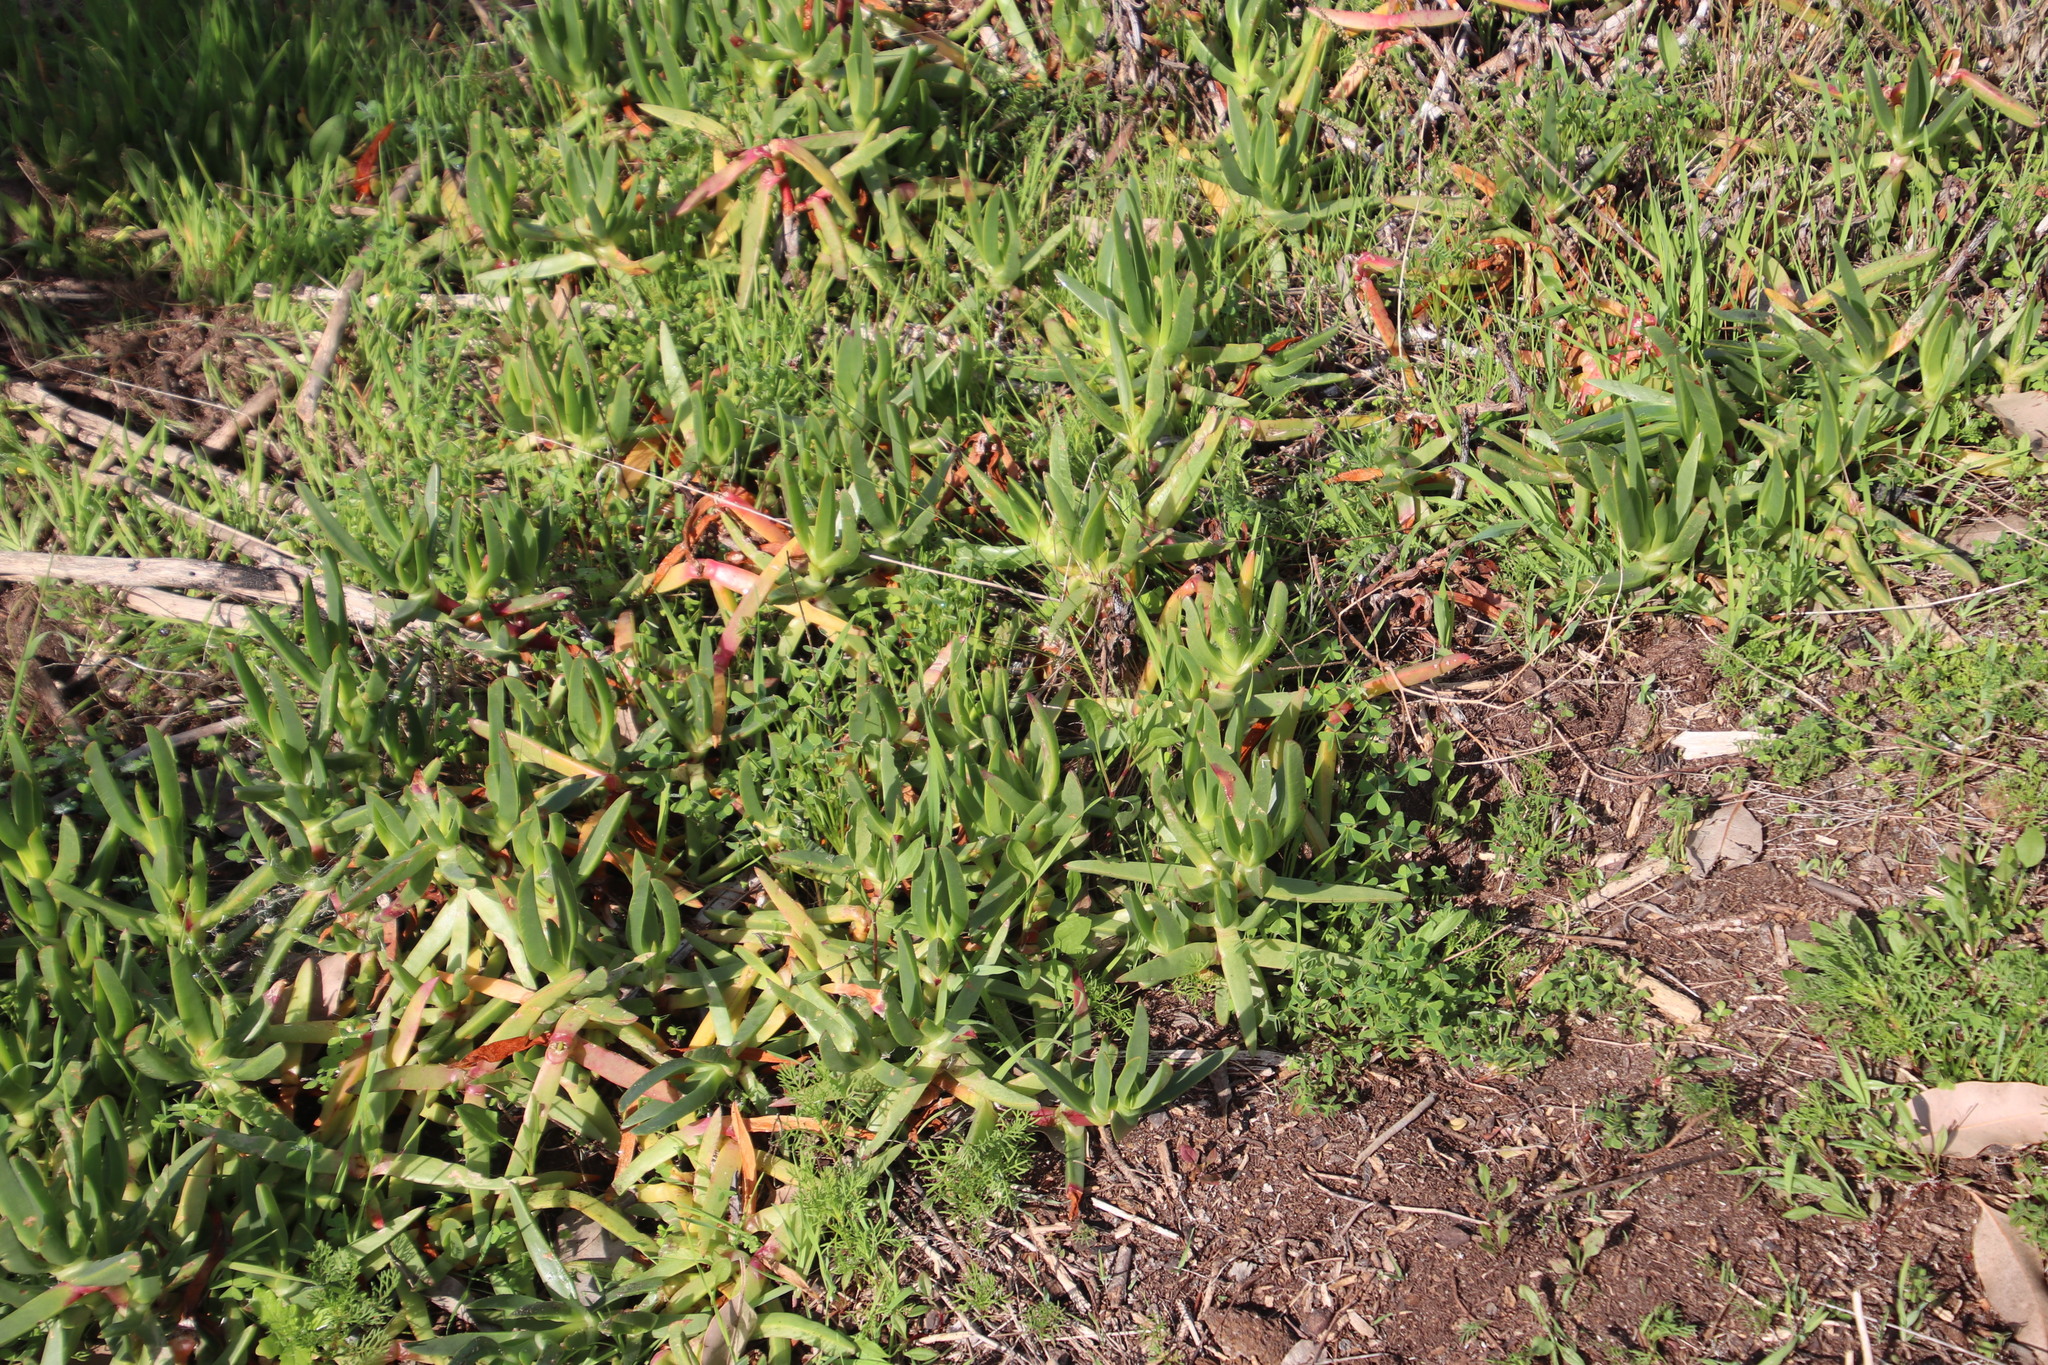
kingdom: Plantae
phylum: Tracheophyta
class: Magnoliopsida
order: Caryophyllales
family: Aizoaceae
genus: Carpobrotus
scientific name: Carpobrotus edulis
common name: Hottentot-fig
